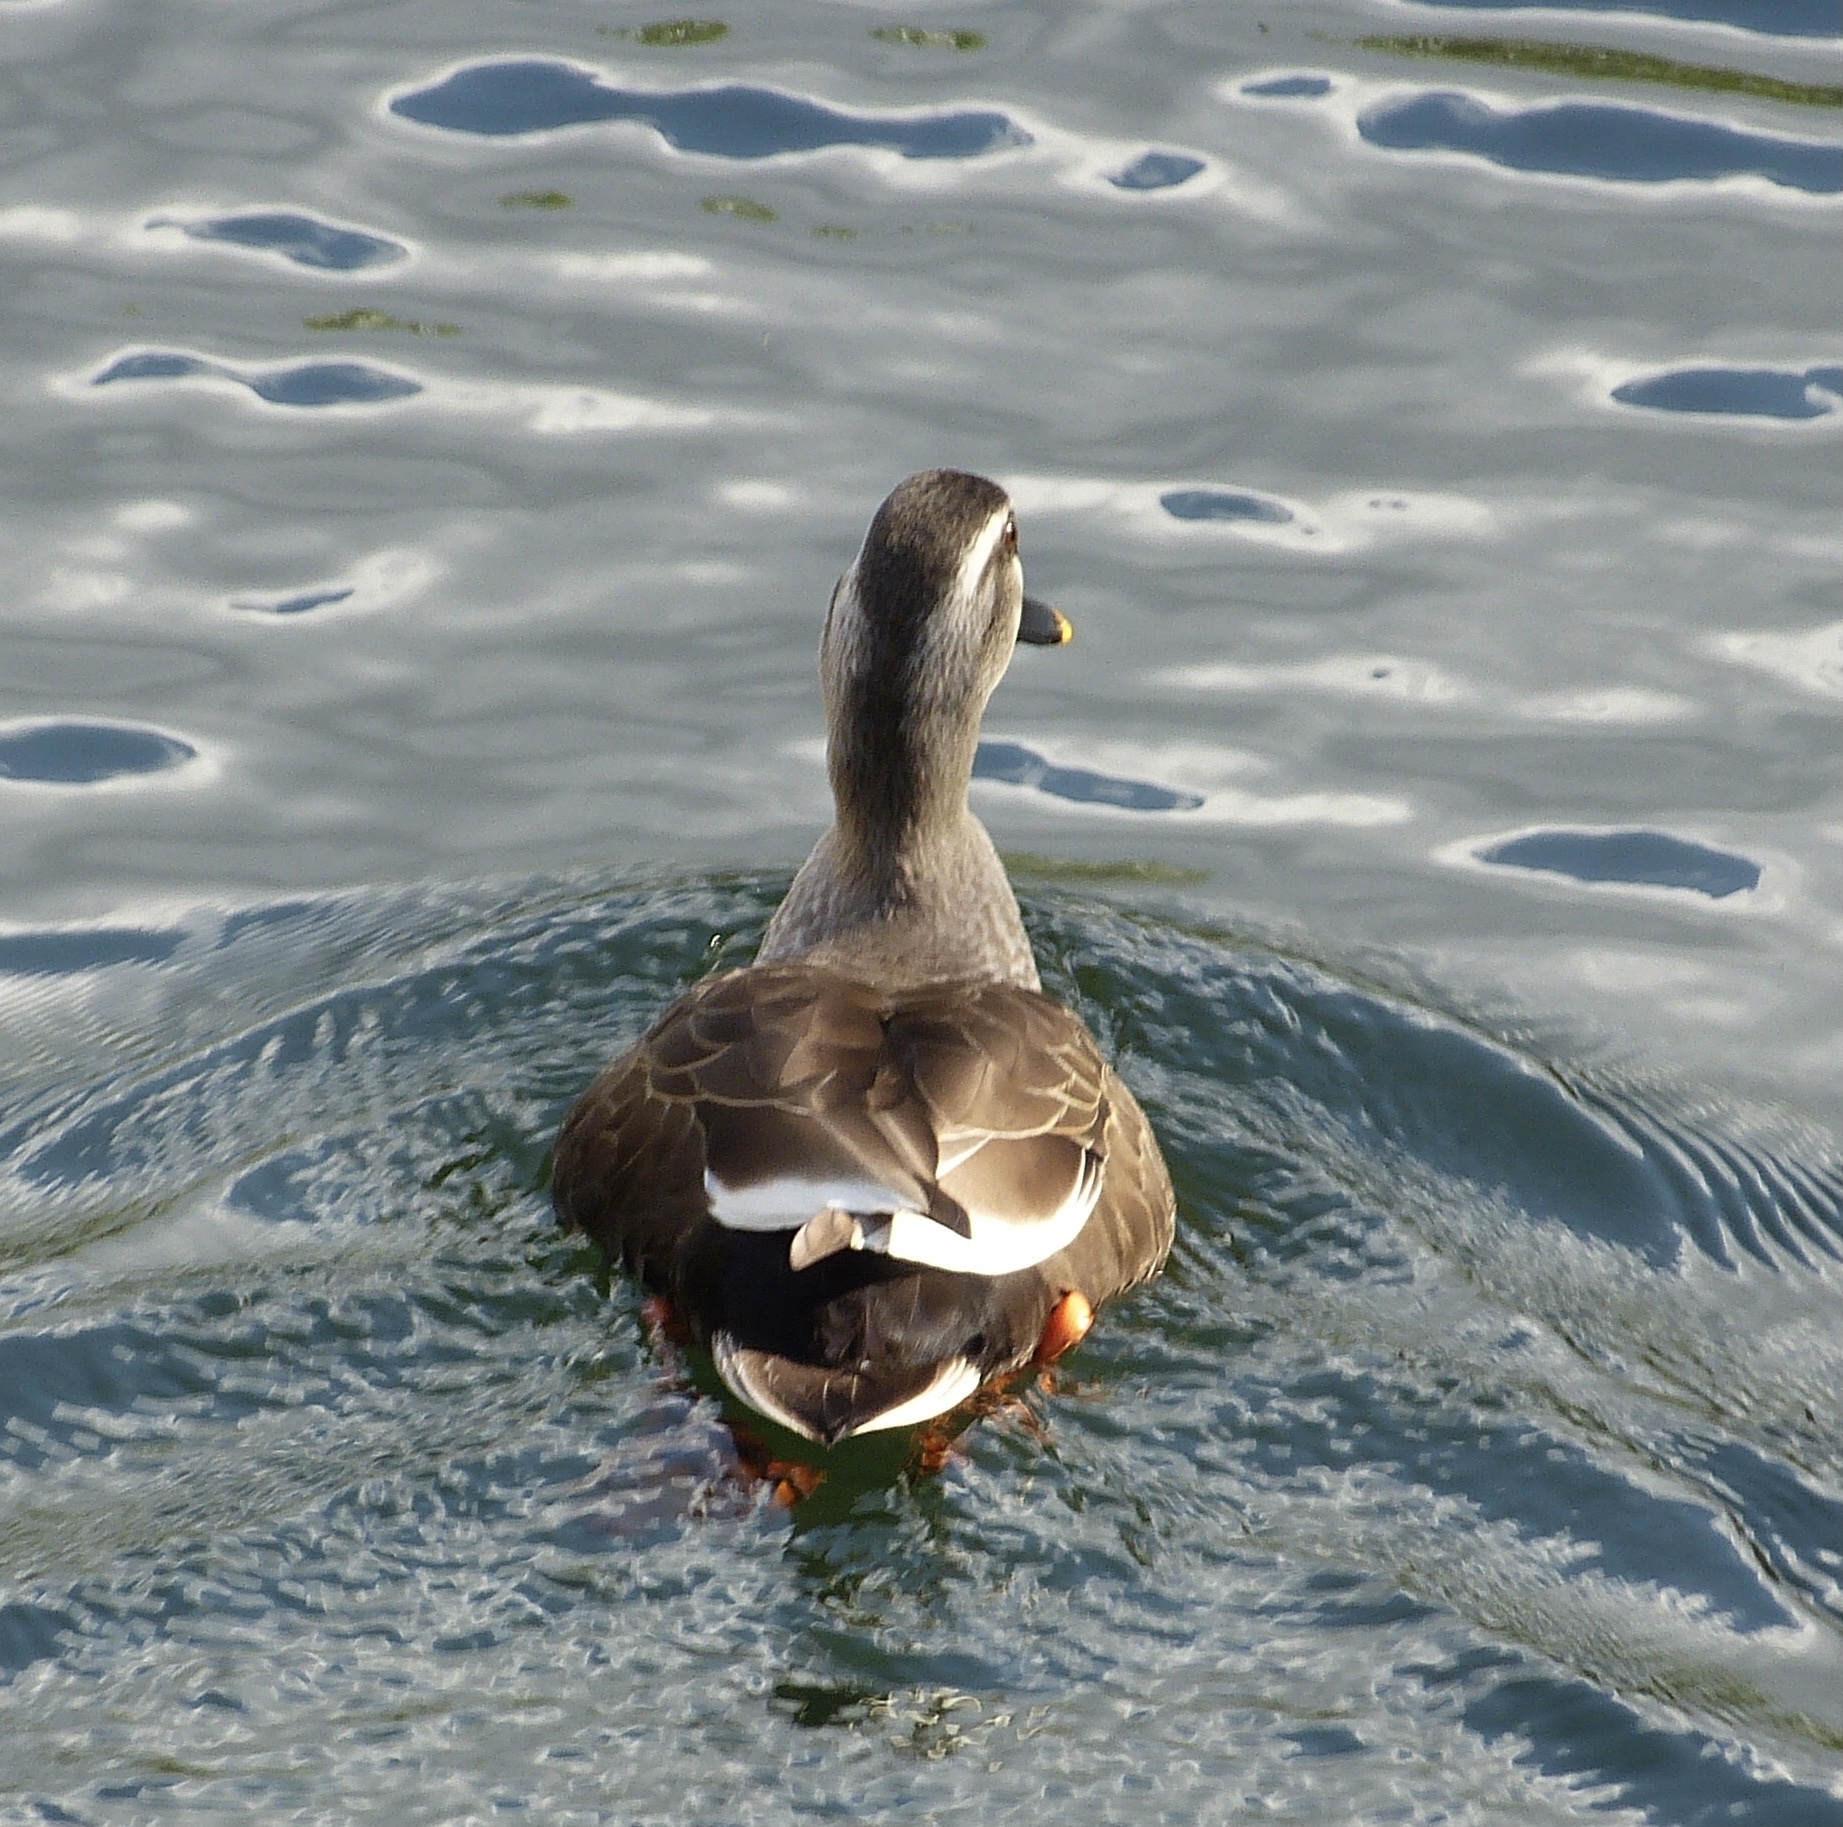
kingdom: Animalia
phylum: Chordata
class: Aves
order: Anseriformes
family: Anatidae
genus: Anas
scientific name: Anas zonorhyncha
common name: Eastern spot-billed duck
